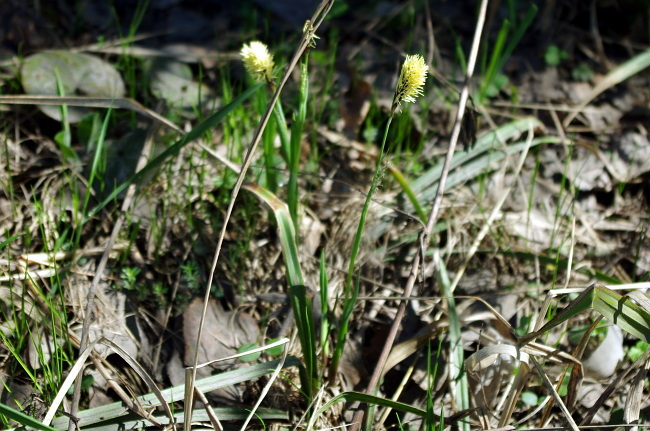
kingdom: Plantae
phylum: Tracheophyta
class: Liliopsida
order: Poales
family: Cyperaceae
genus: Carex
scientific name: Carex pilosa
